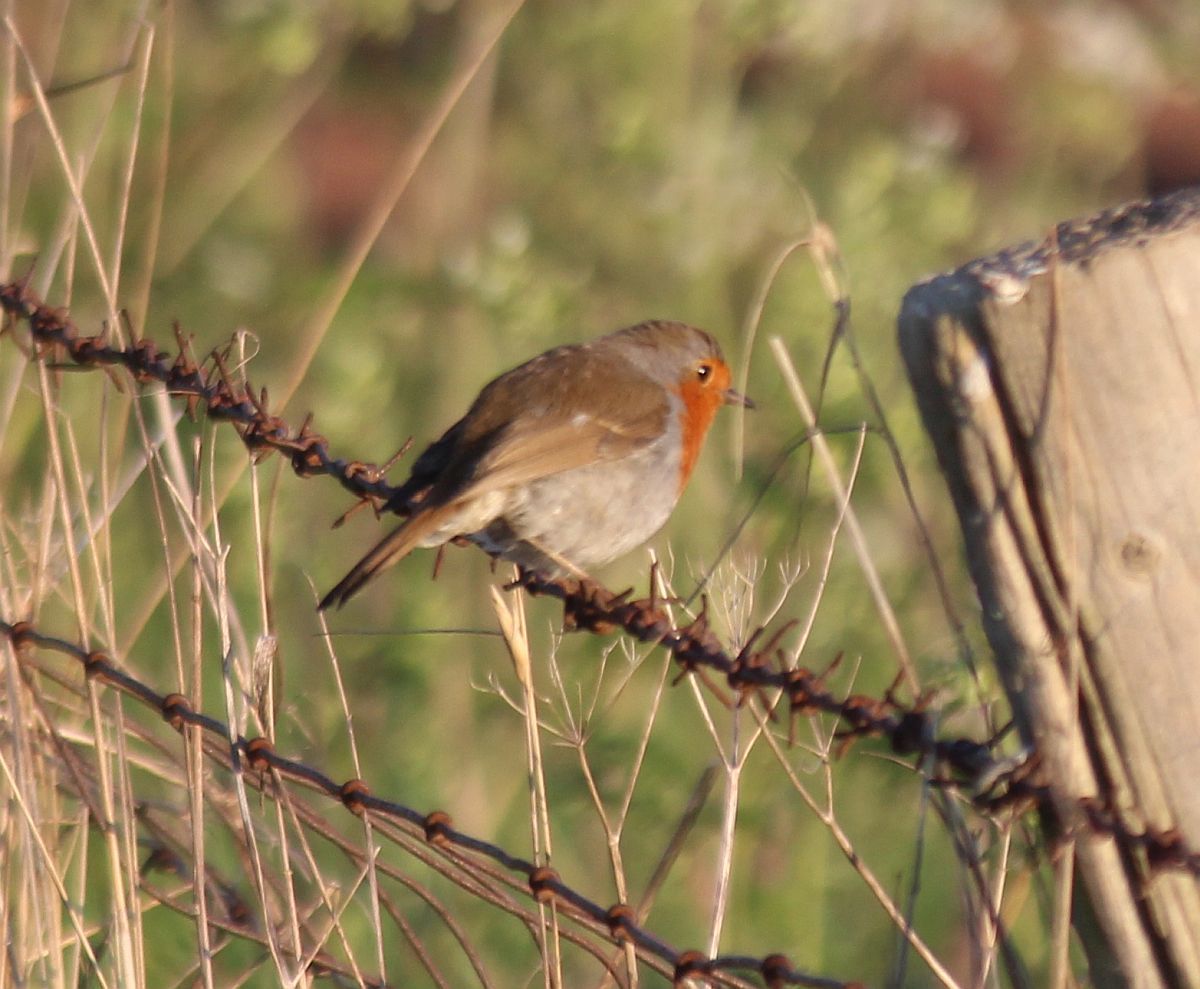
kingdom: Animalia
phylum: Chordata
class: Aves
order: Passeriformes
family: Muscicapidae
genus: Erithacus
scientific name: Erithacus rubecula
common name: European robin
